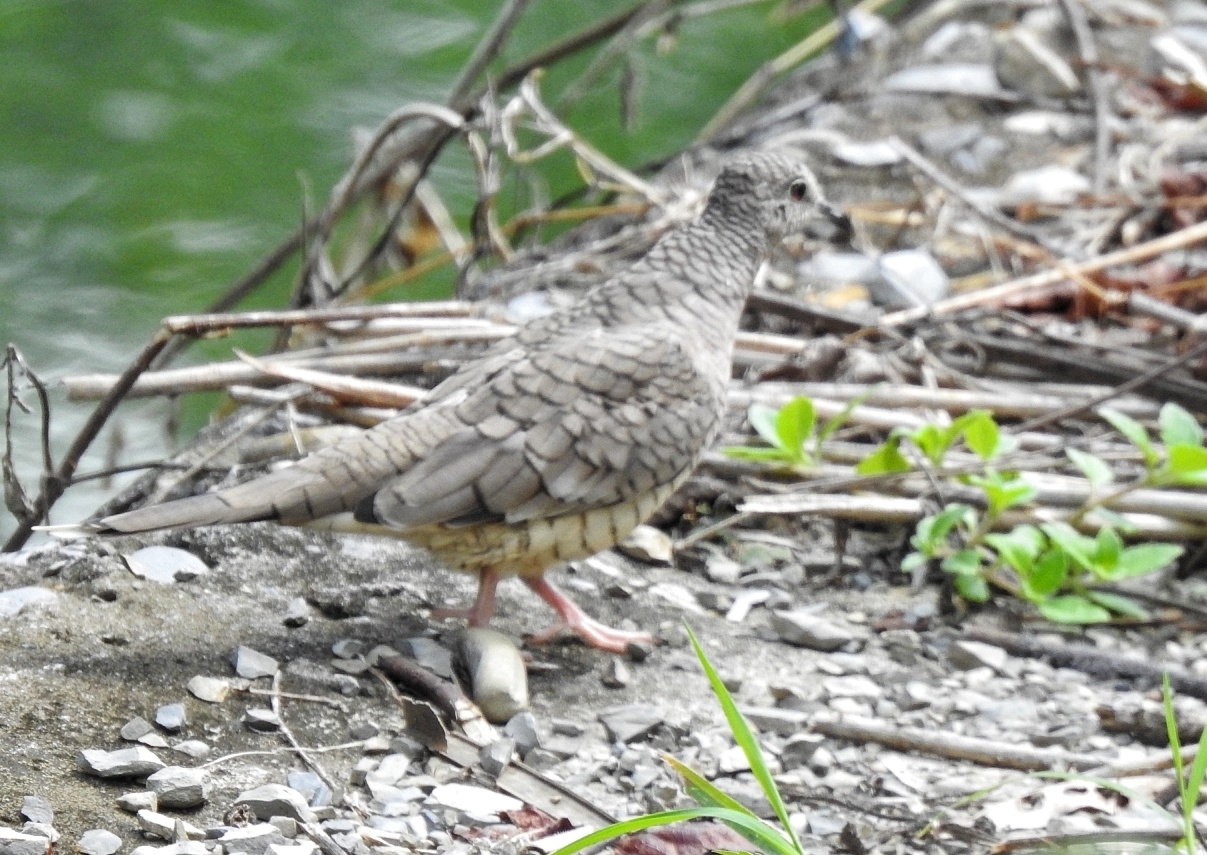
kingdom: Animalia
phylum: Chordata
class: Aves
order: Columbiformes
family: Columbidae
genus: Columbina
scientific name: Columbina inca
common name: Inca dove
